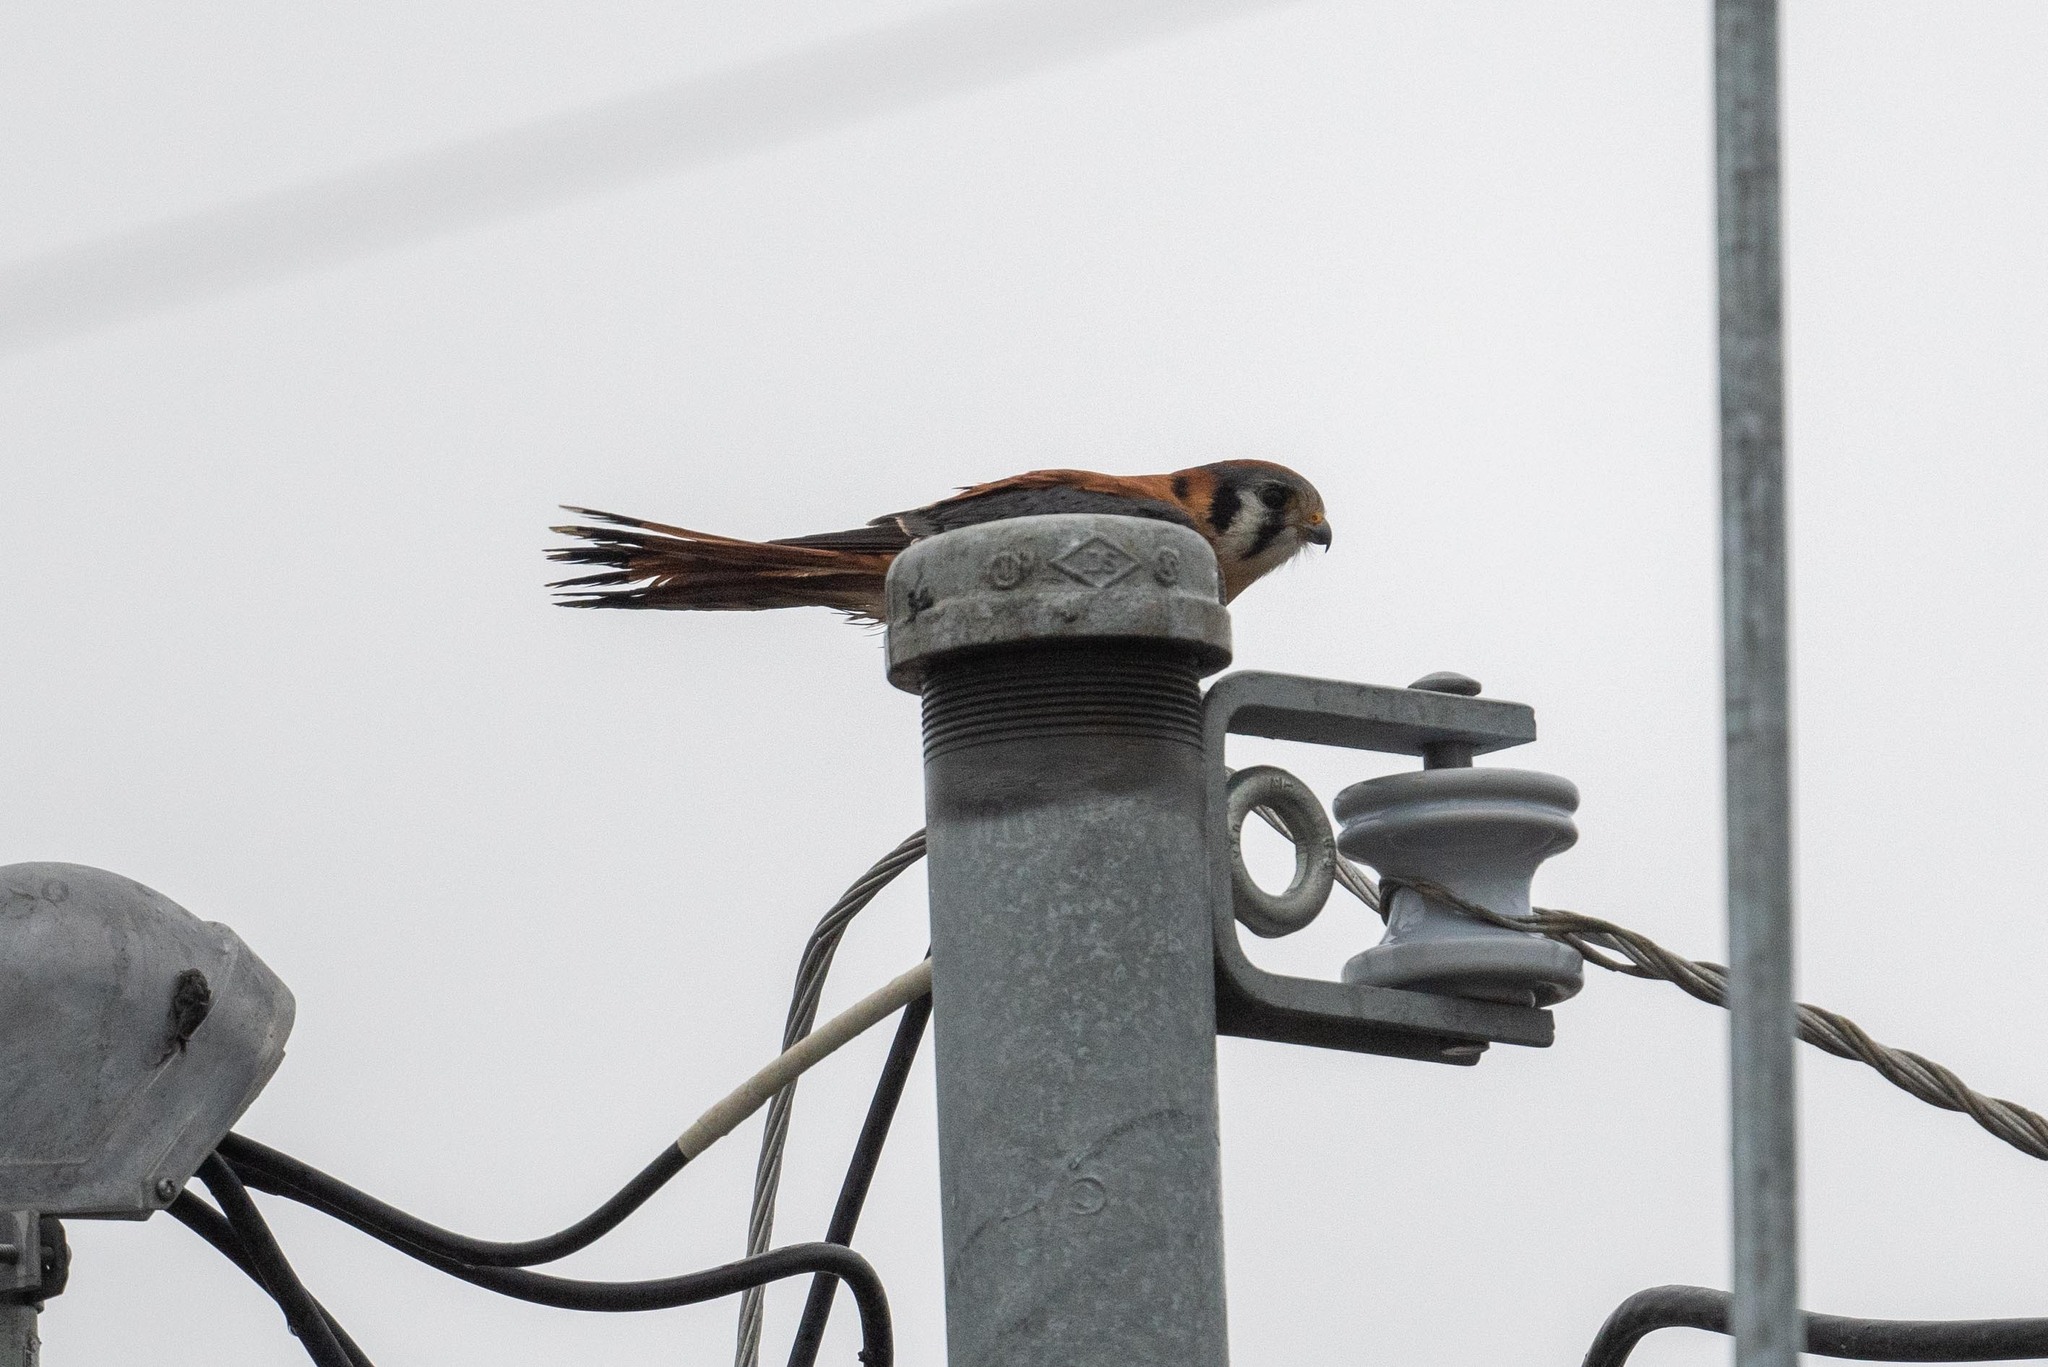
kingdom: Animalia
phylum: Chordata
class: Aves
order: Falconiformes
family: Falconidae
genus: Falco
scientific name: Falco sparverius
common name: American kestrel
